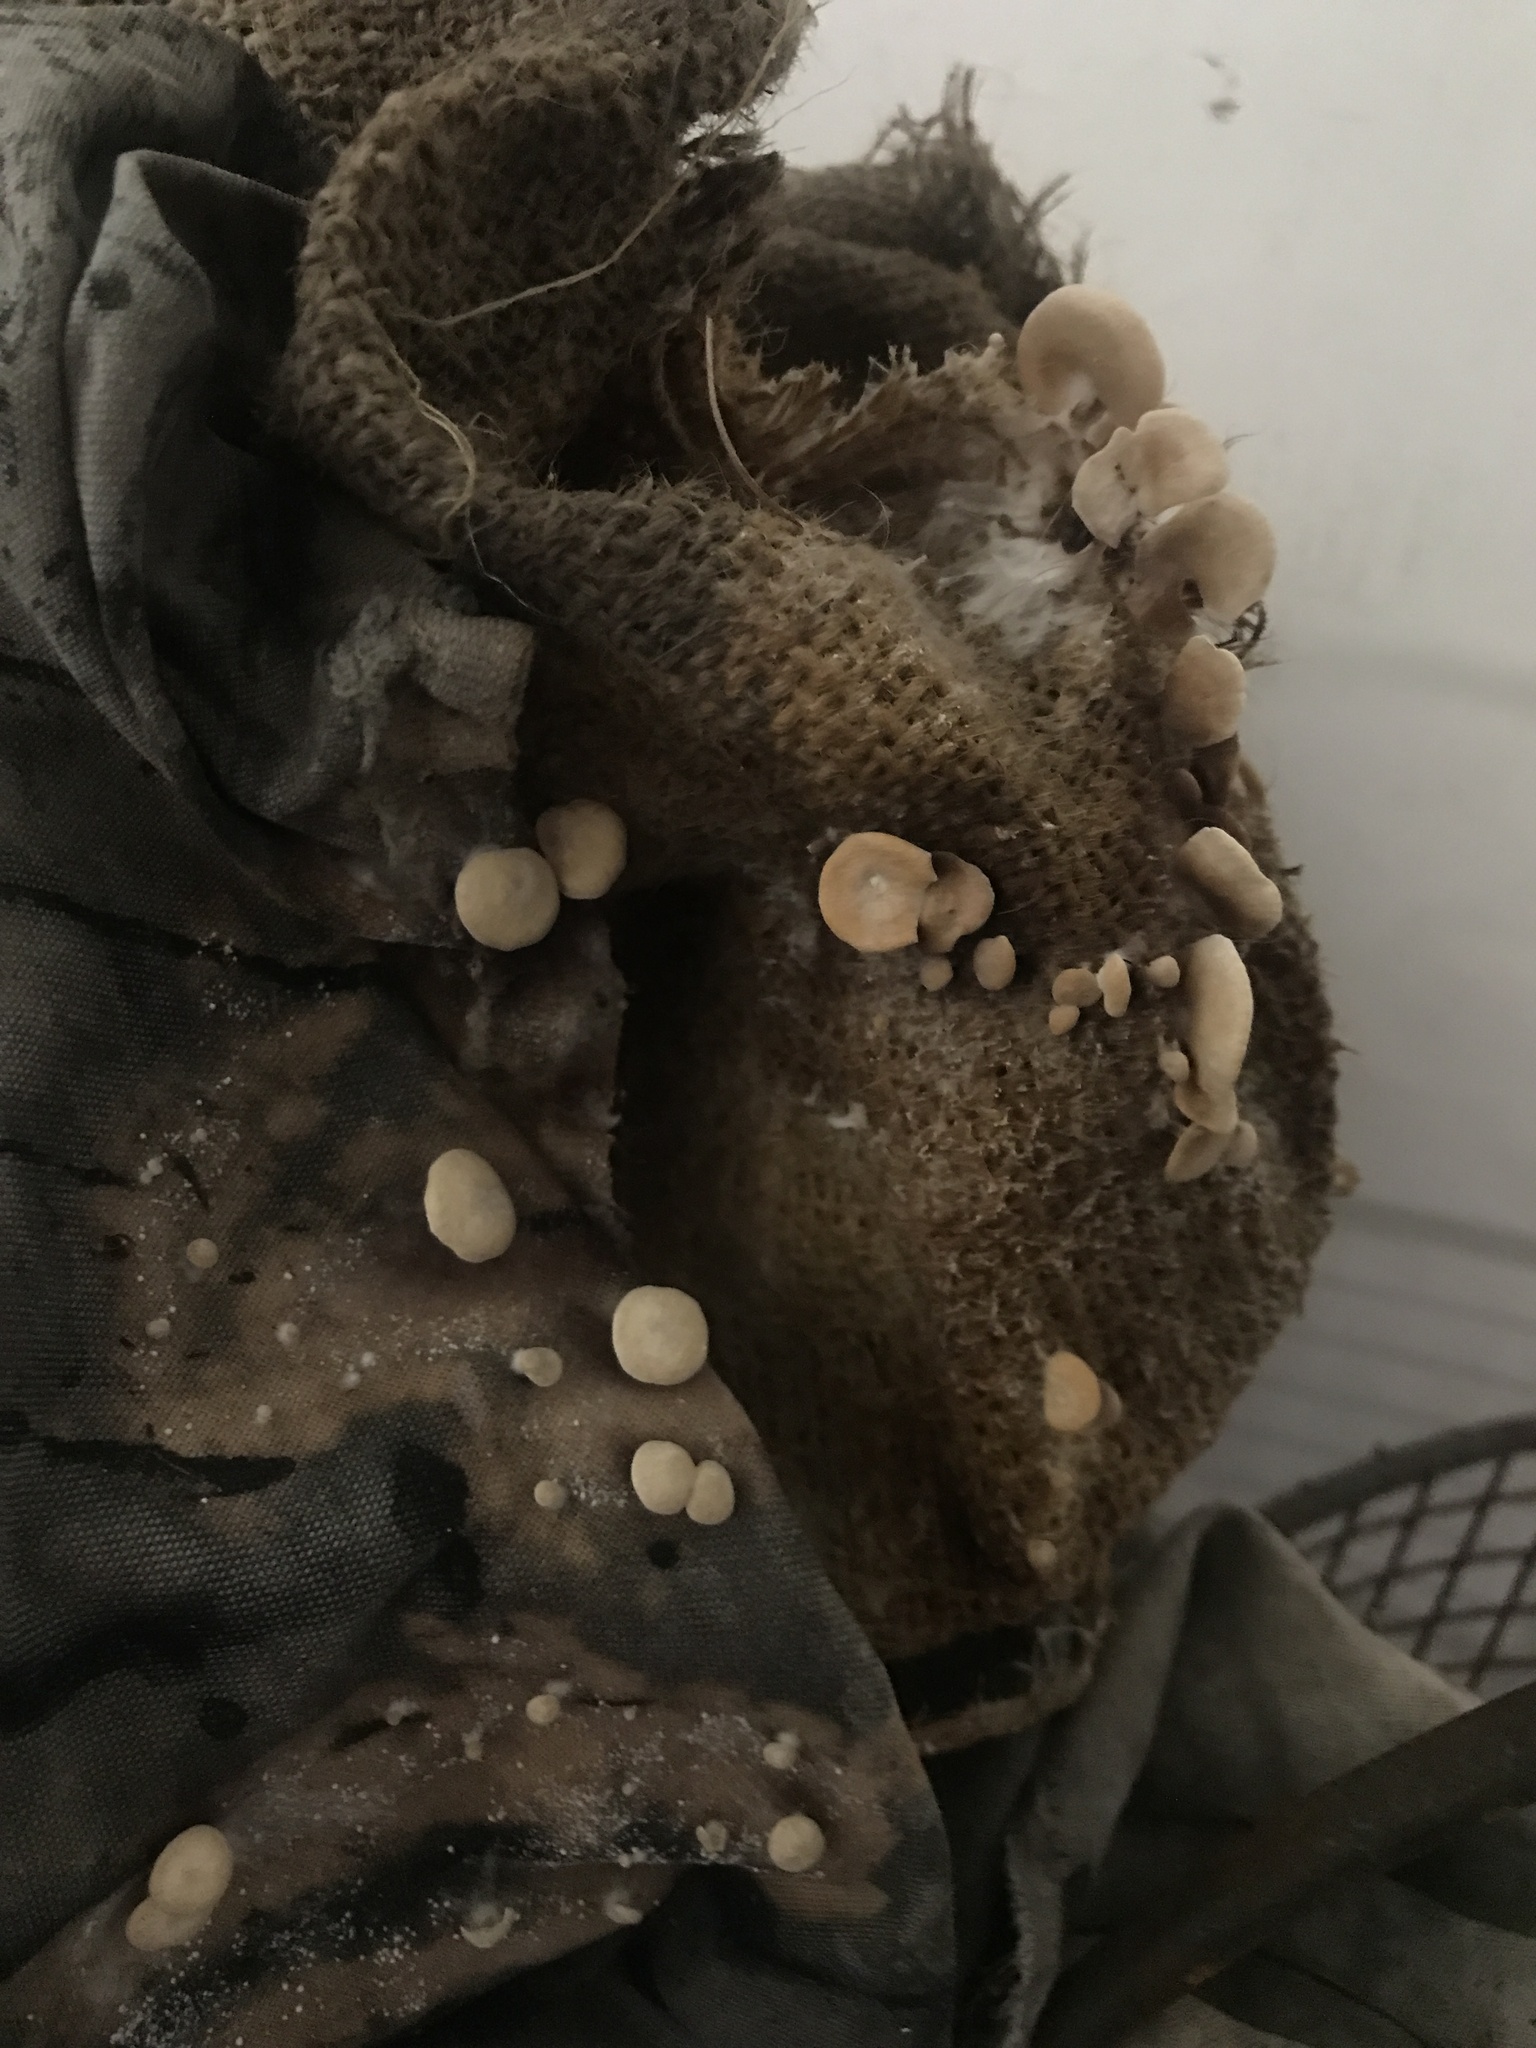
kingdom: Fungi
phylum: Basidiomycota
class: Agaricomycetes
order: Agaricales
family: Strophariaceae
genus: Deconica
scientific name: Deconica horizontalis
